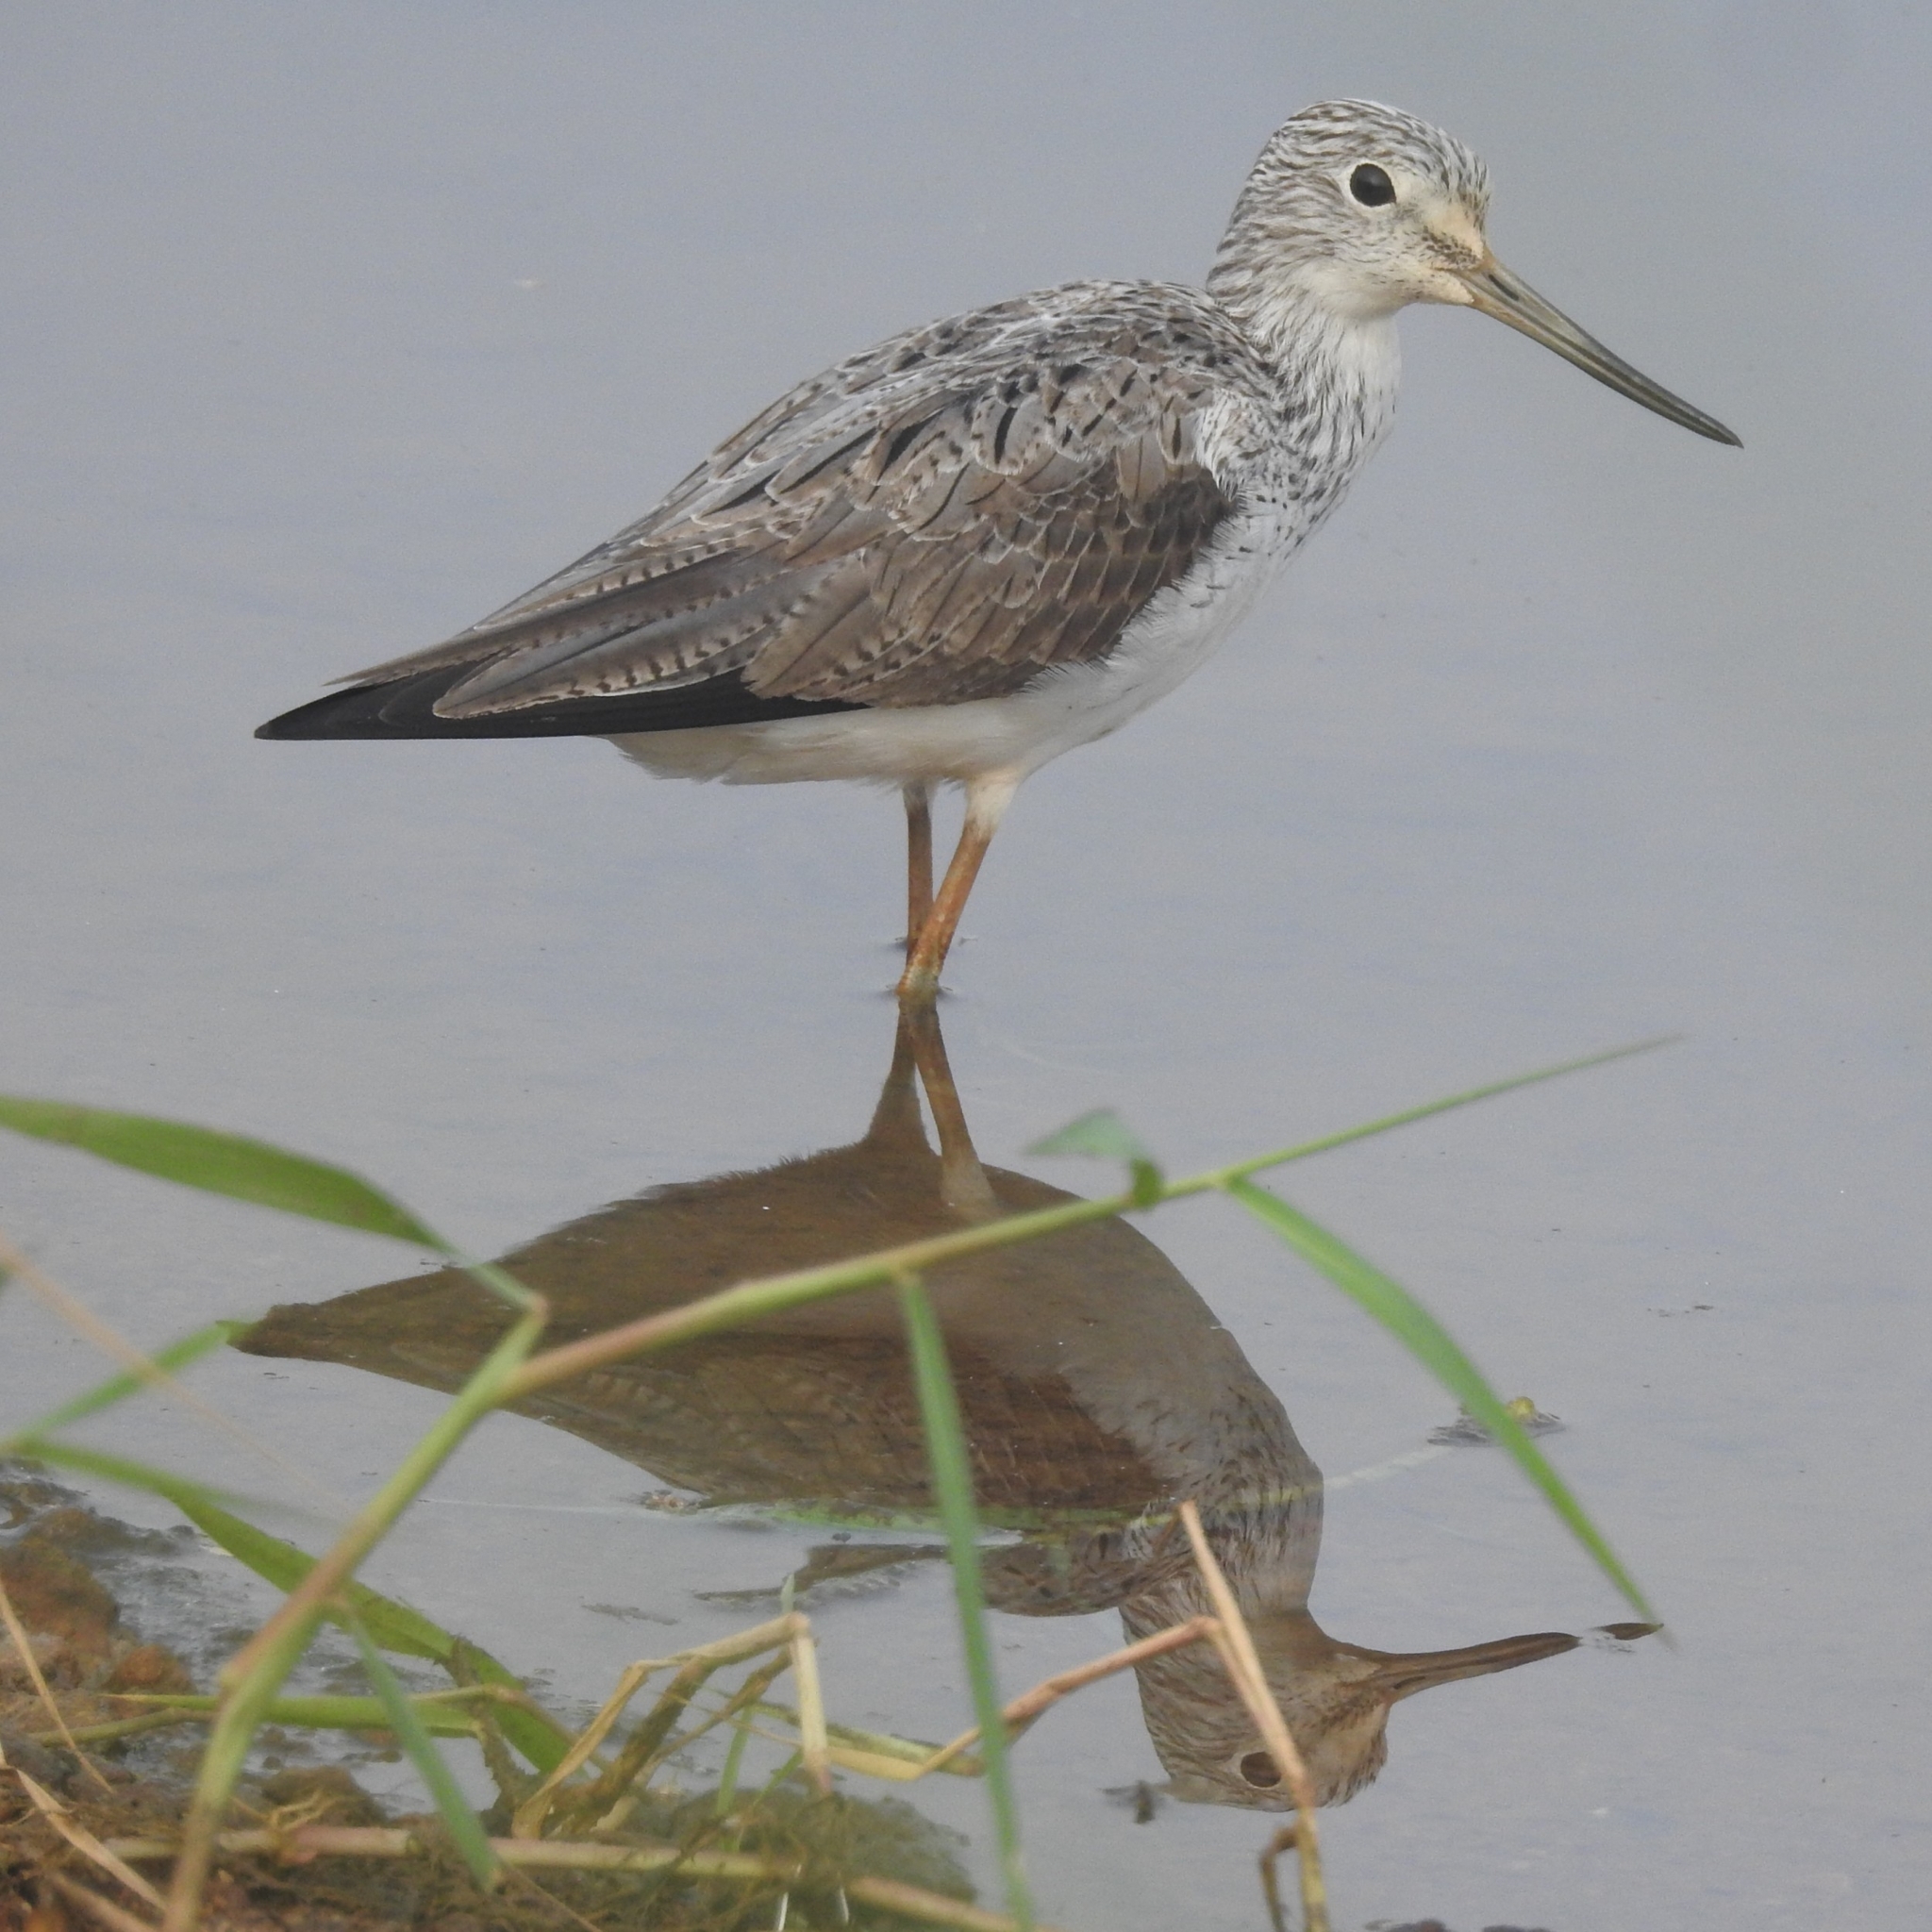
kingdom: Animalia
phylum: Chordata
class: Aves
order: Charadriiformes
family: Scolopacidae
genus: Tringa
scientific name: Tringa nebularia
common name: Common greenshank
